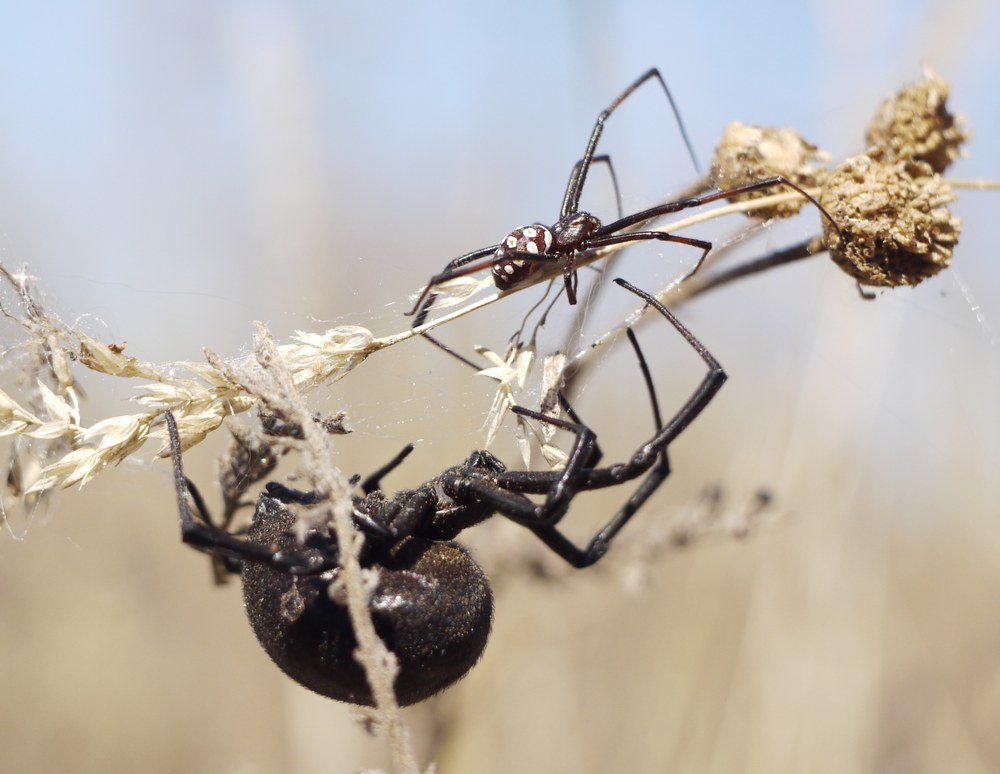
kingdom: Animalia
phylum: Arthropoda
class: Arachnida
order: Araneae
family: Theridiidae
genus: Latrodectus
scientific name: Latrodectus tredecimguttatus
